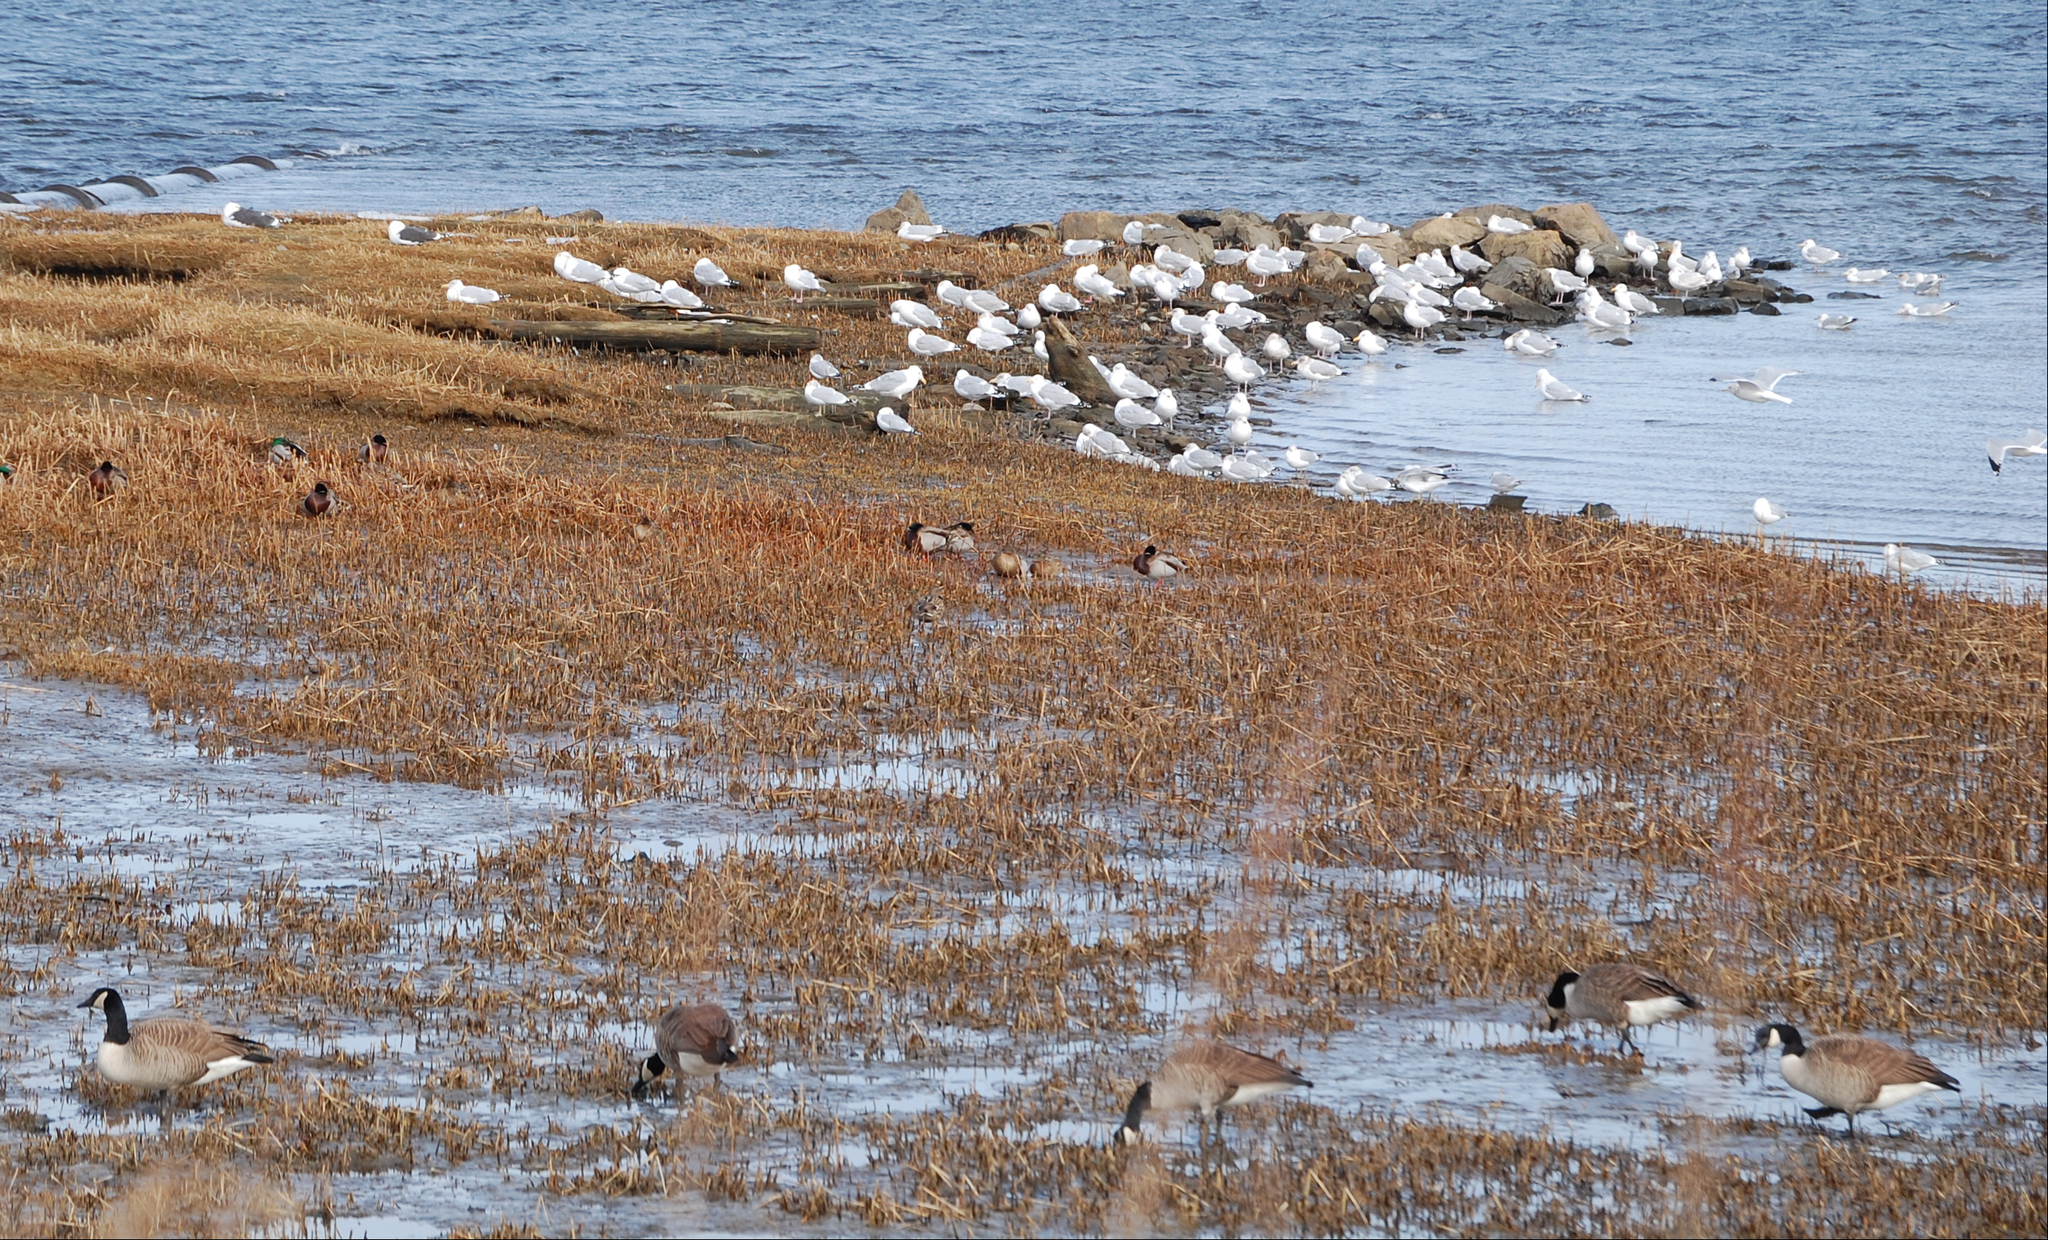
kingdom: Animalia
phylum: Chordata
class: Aves
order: Anseriformes
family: Anatidae
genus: Branta
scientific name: Branta canadensis
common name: Canada goose
